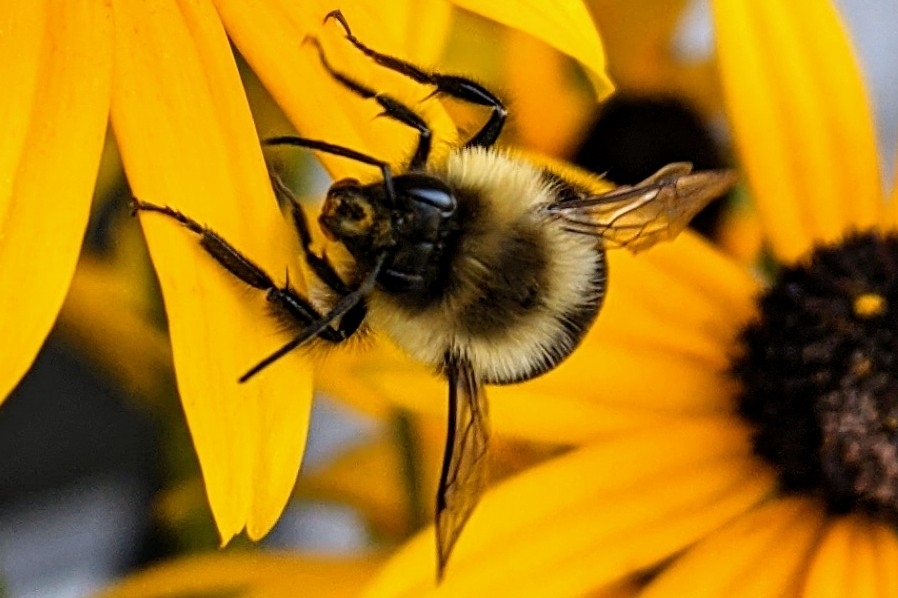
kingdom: Animalia
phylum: Arthropoda
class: Insecta
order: Hymenoptera
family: Apidae
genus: Bombus
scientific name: Bombus impatiens
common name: Common eastern bumble bee
